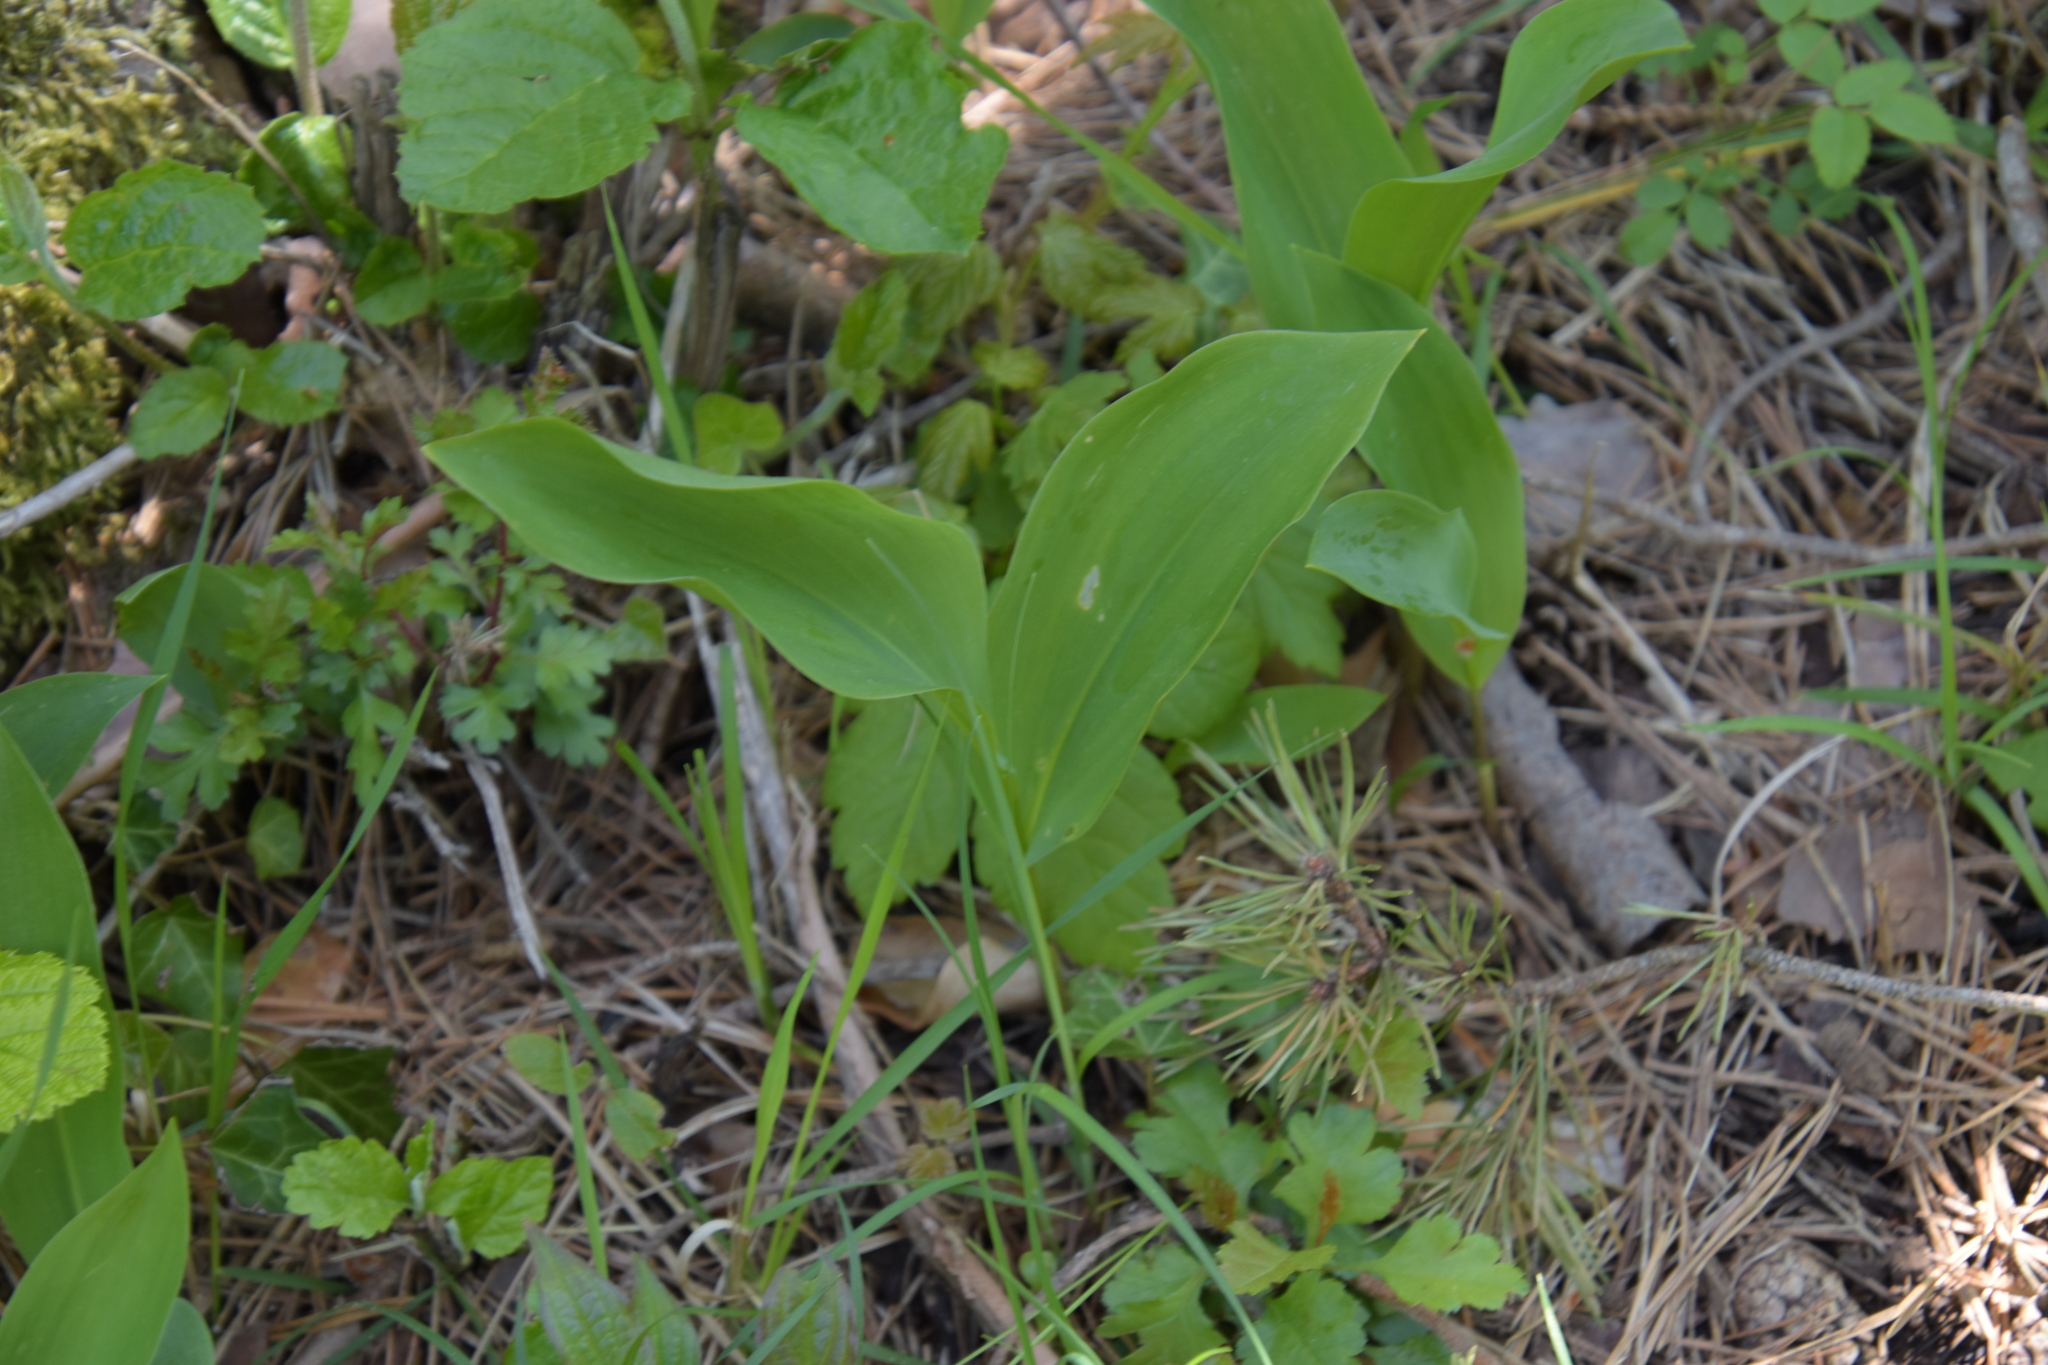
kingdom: Plantae
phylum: Tracheophyta
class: Liliopsida
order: Asparagales
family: Asparagaceae
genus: Convallaria
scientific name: Convallaria majalis
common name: Lily-of-the-valley
